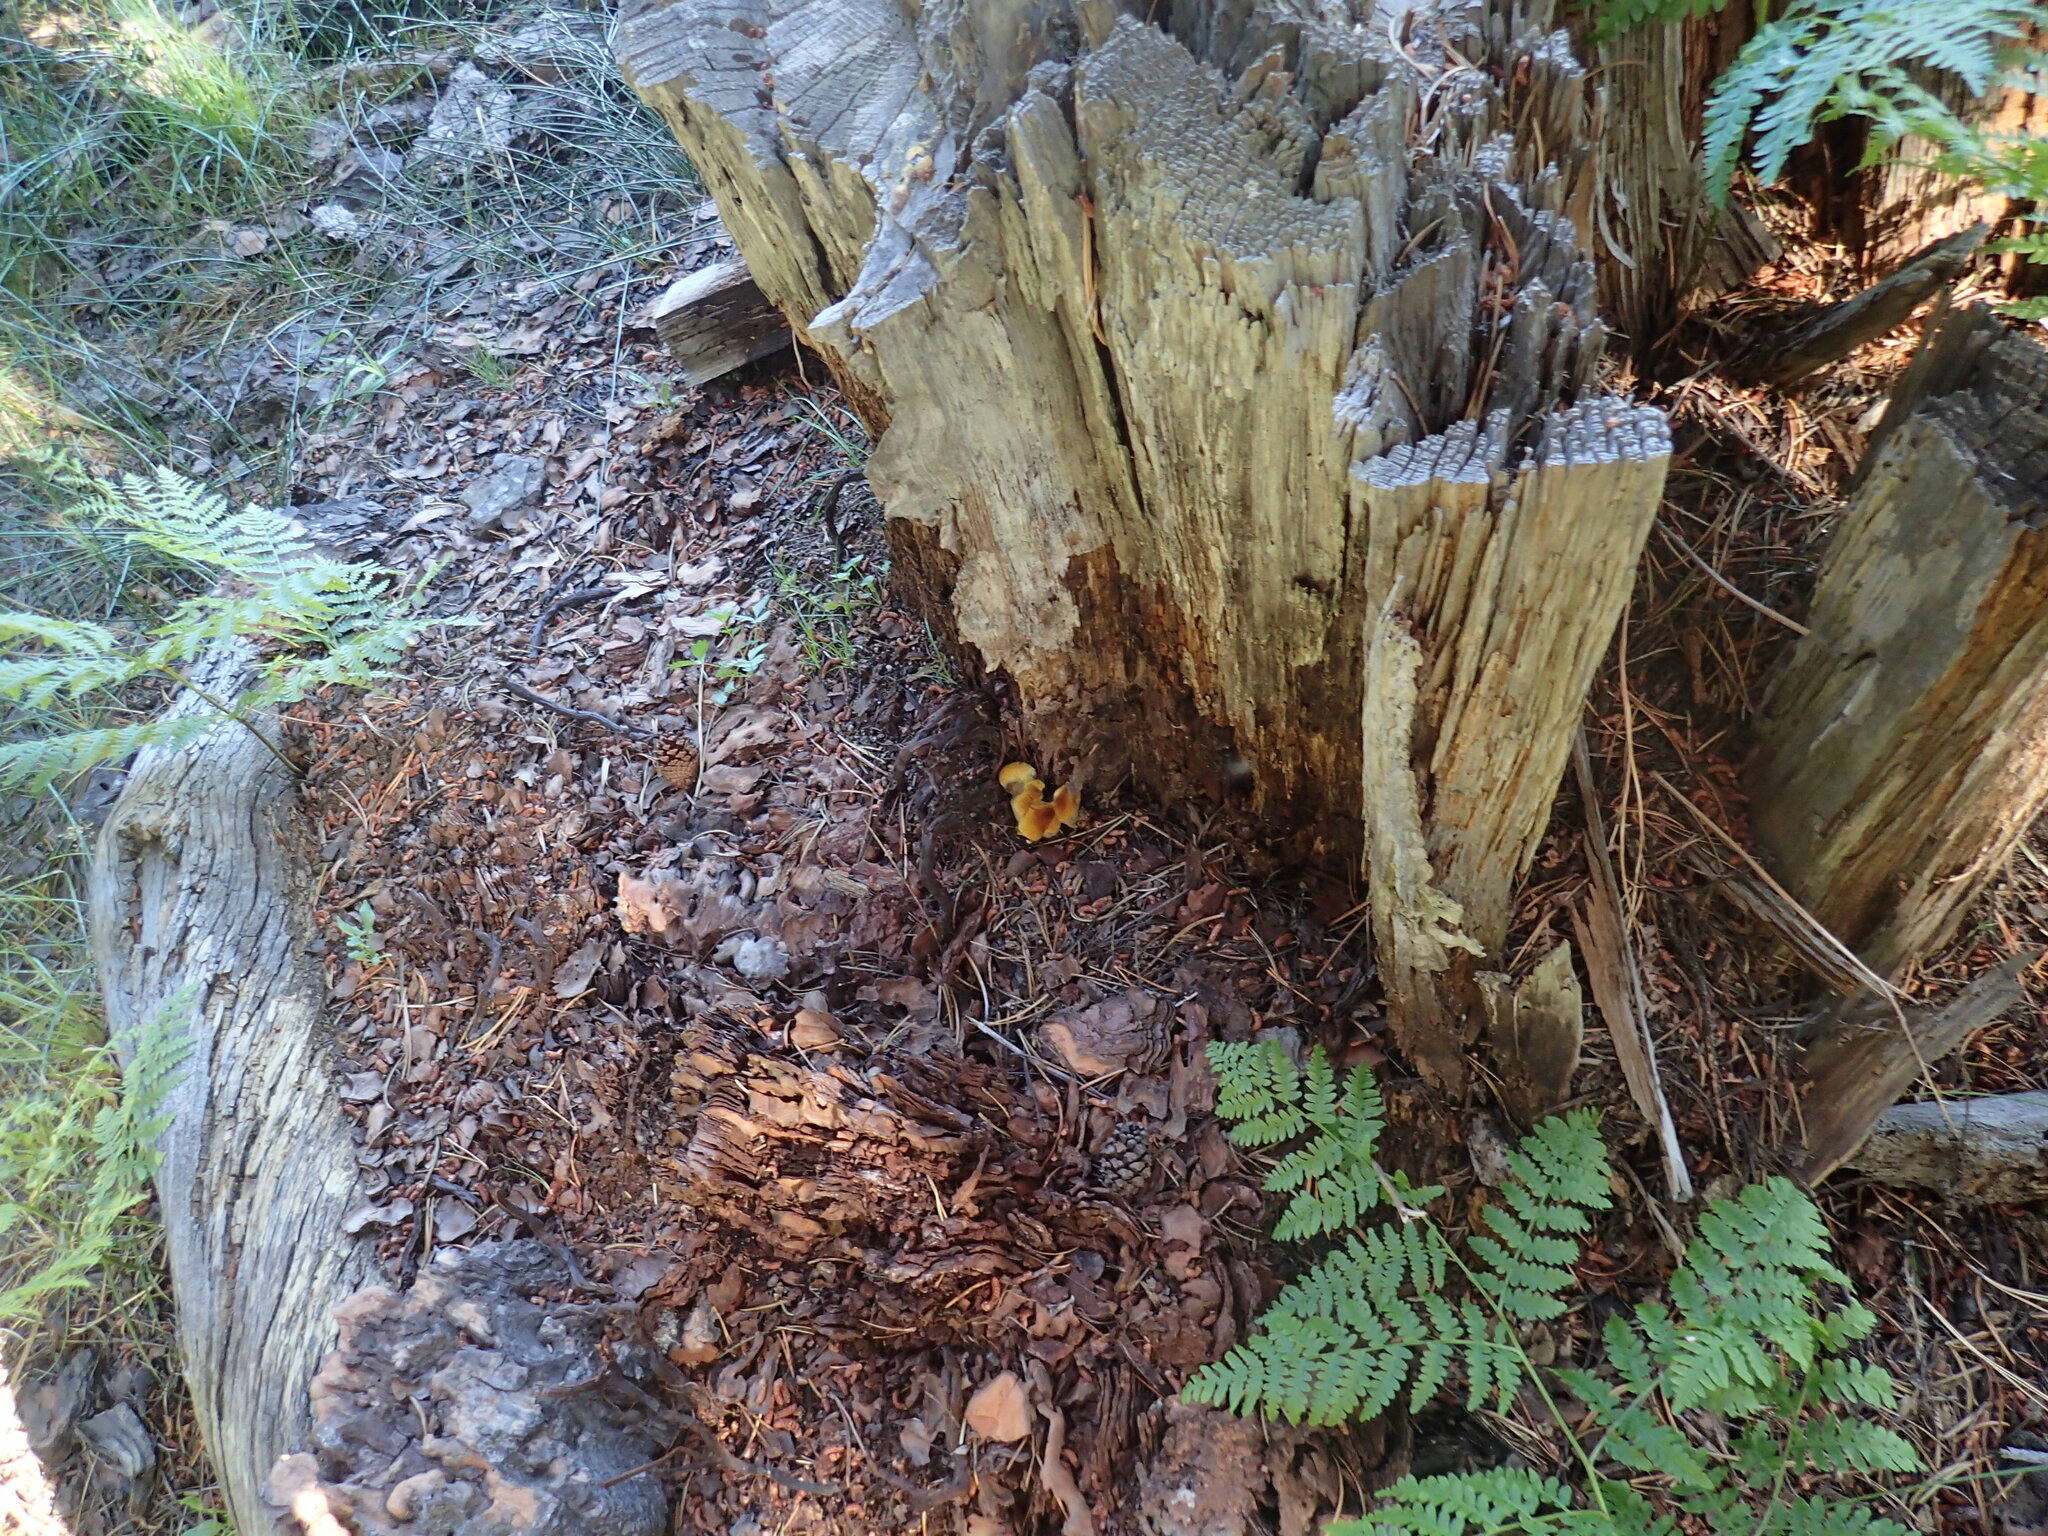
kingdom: Fungi
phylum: Basidiomycota
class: Agaricomycetes
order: Polyporales
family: Laetiporaceae
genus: Phaeolus
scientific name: Phaeolus schweinitzii
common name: Dyer's mazegill
